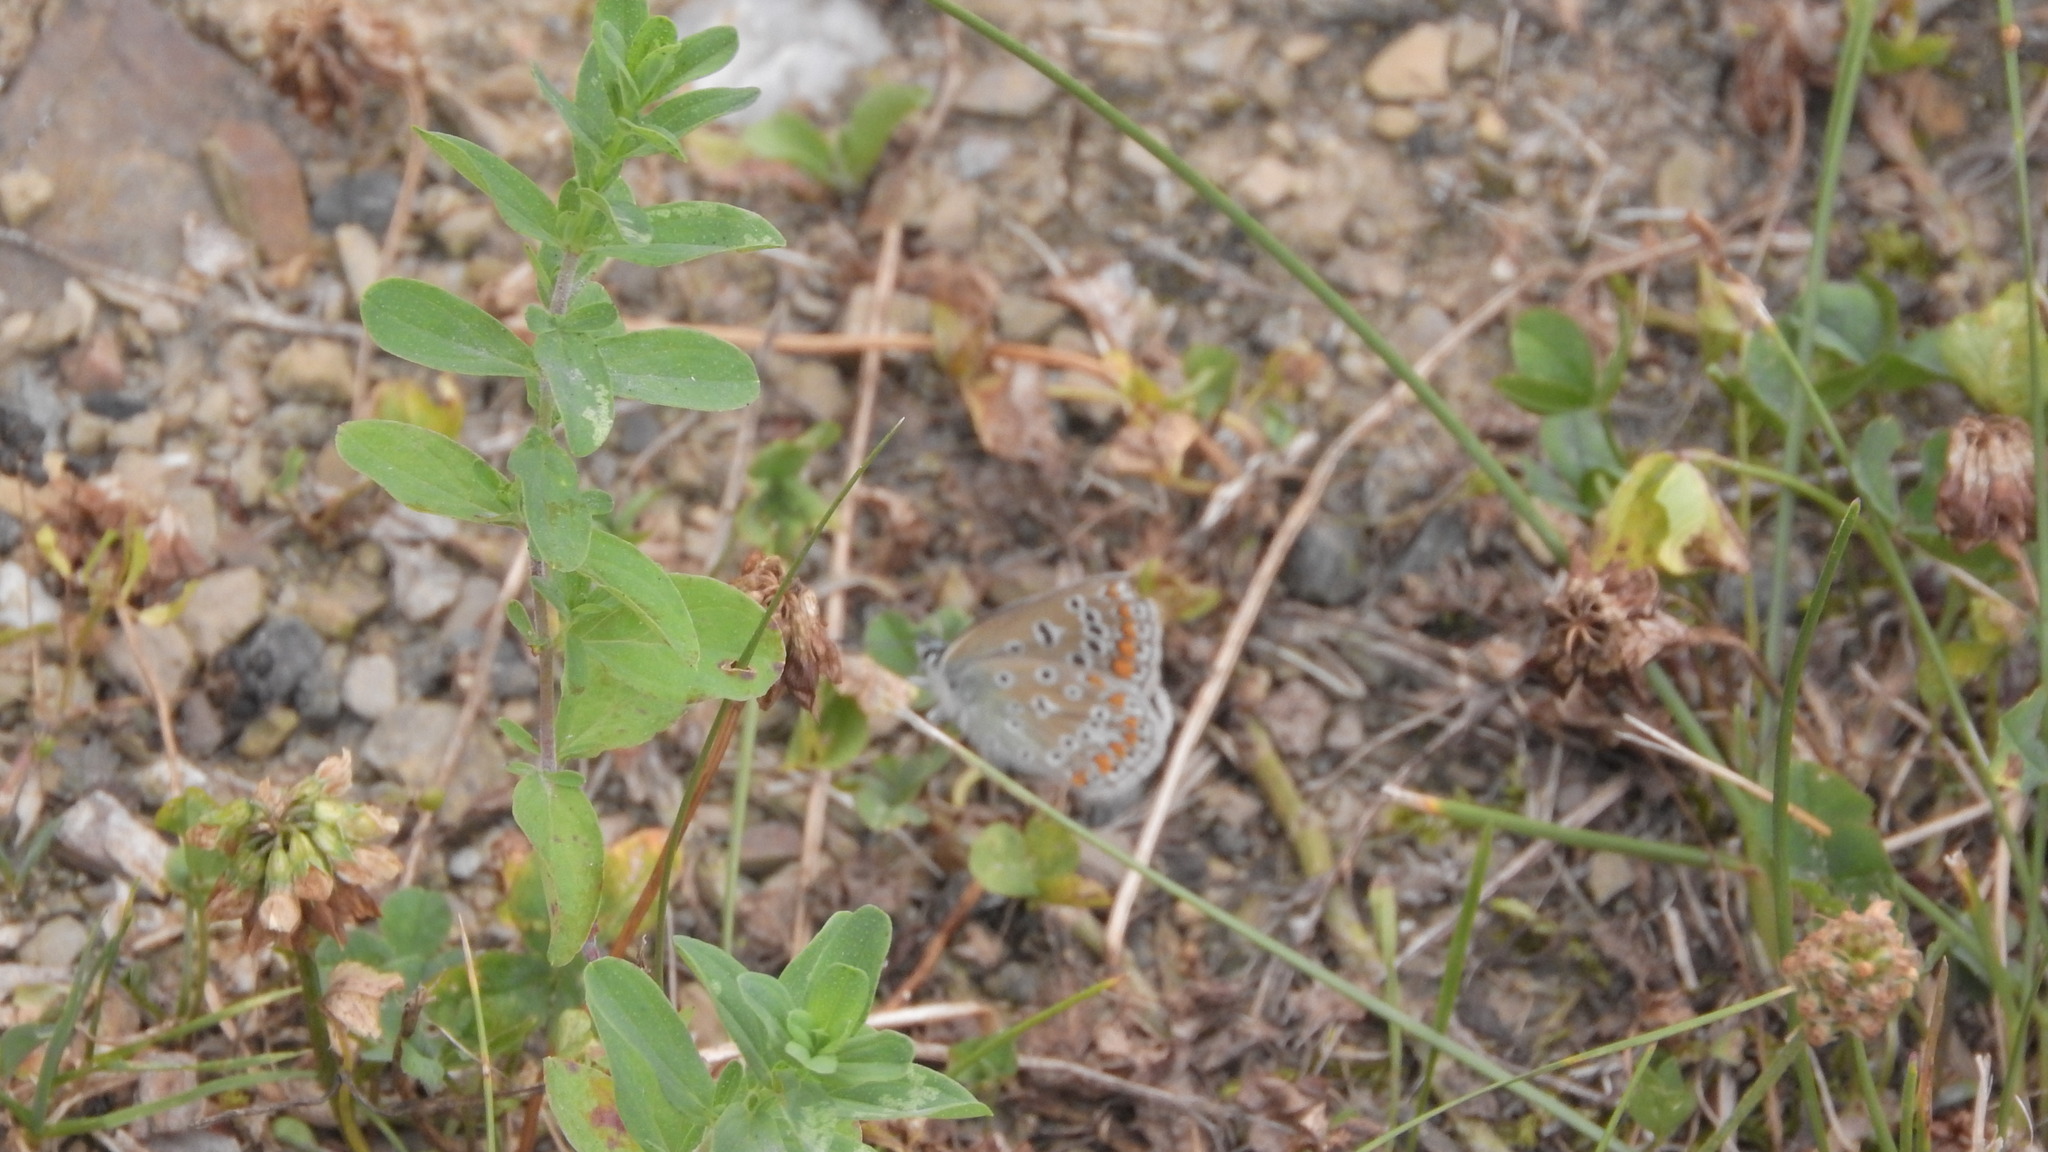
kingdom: Animalia
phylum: Arthropoda
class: Insecta
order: Lepidoptera
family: Lycaenidae
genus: Polyommatus
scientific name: Polyommatus icarus
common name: Common blue
